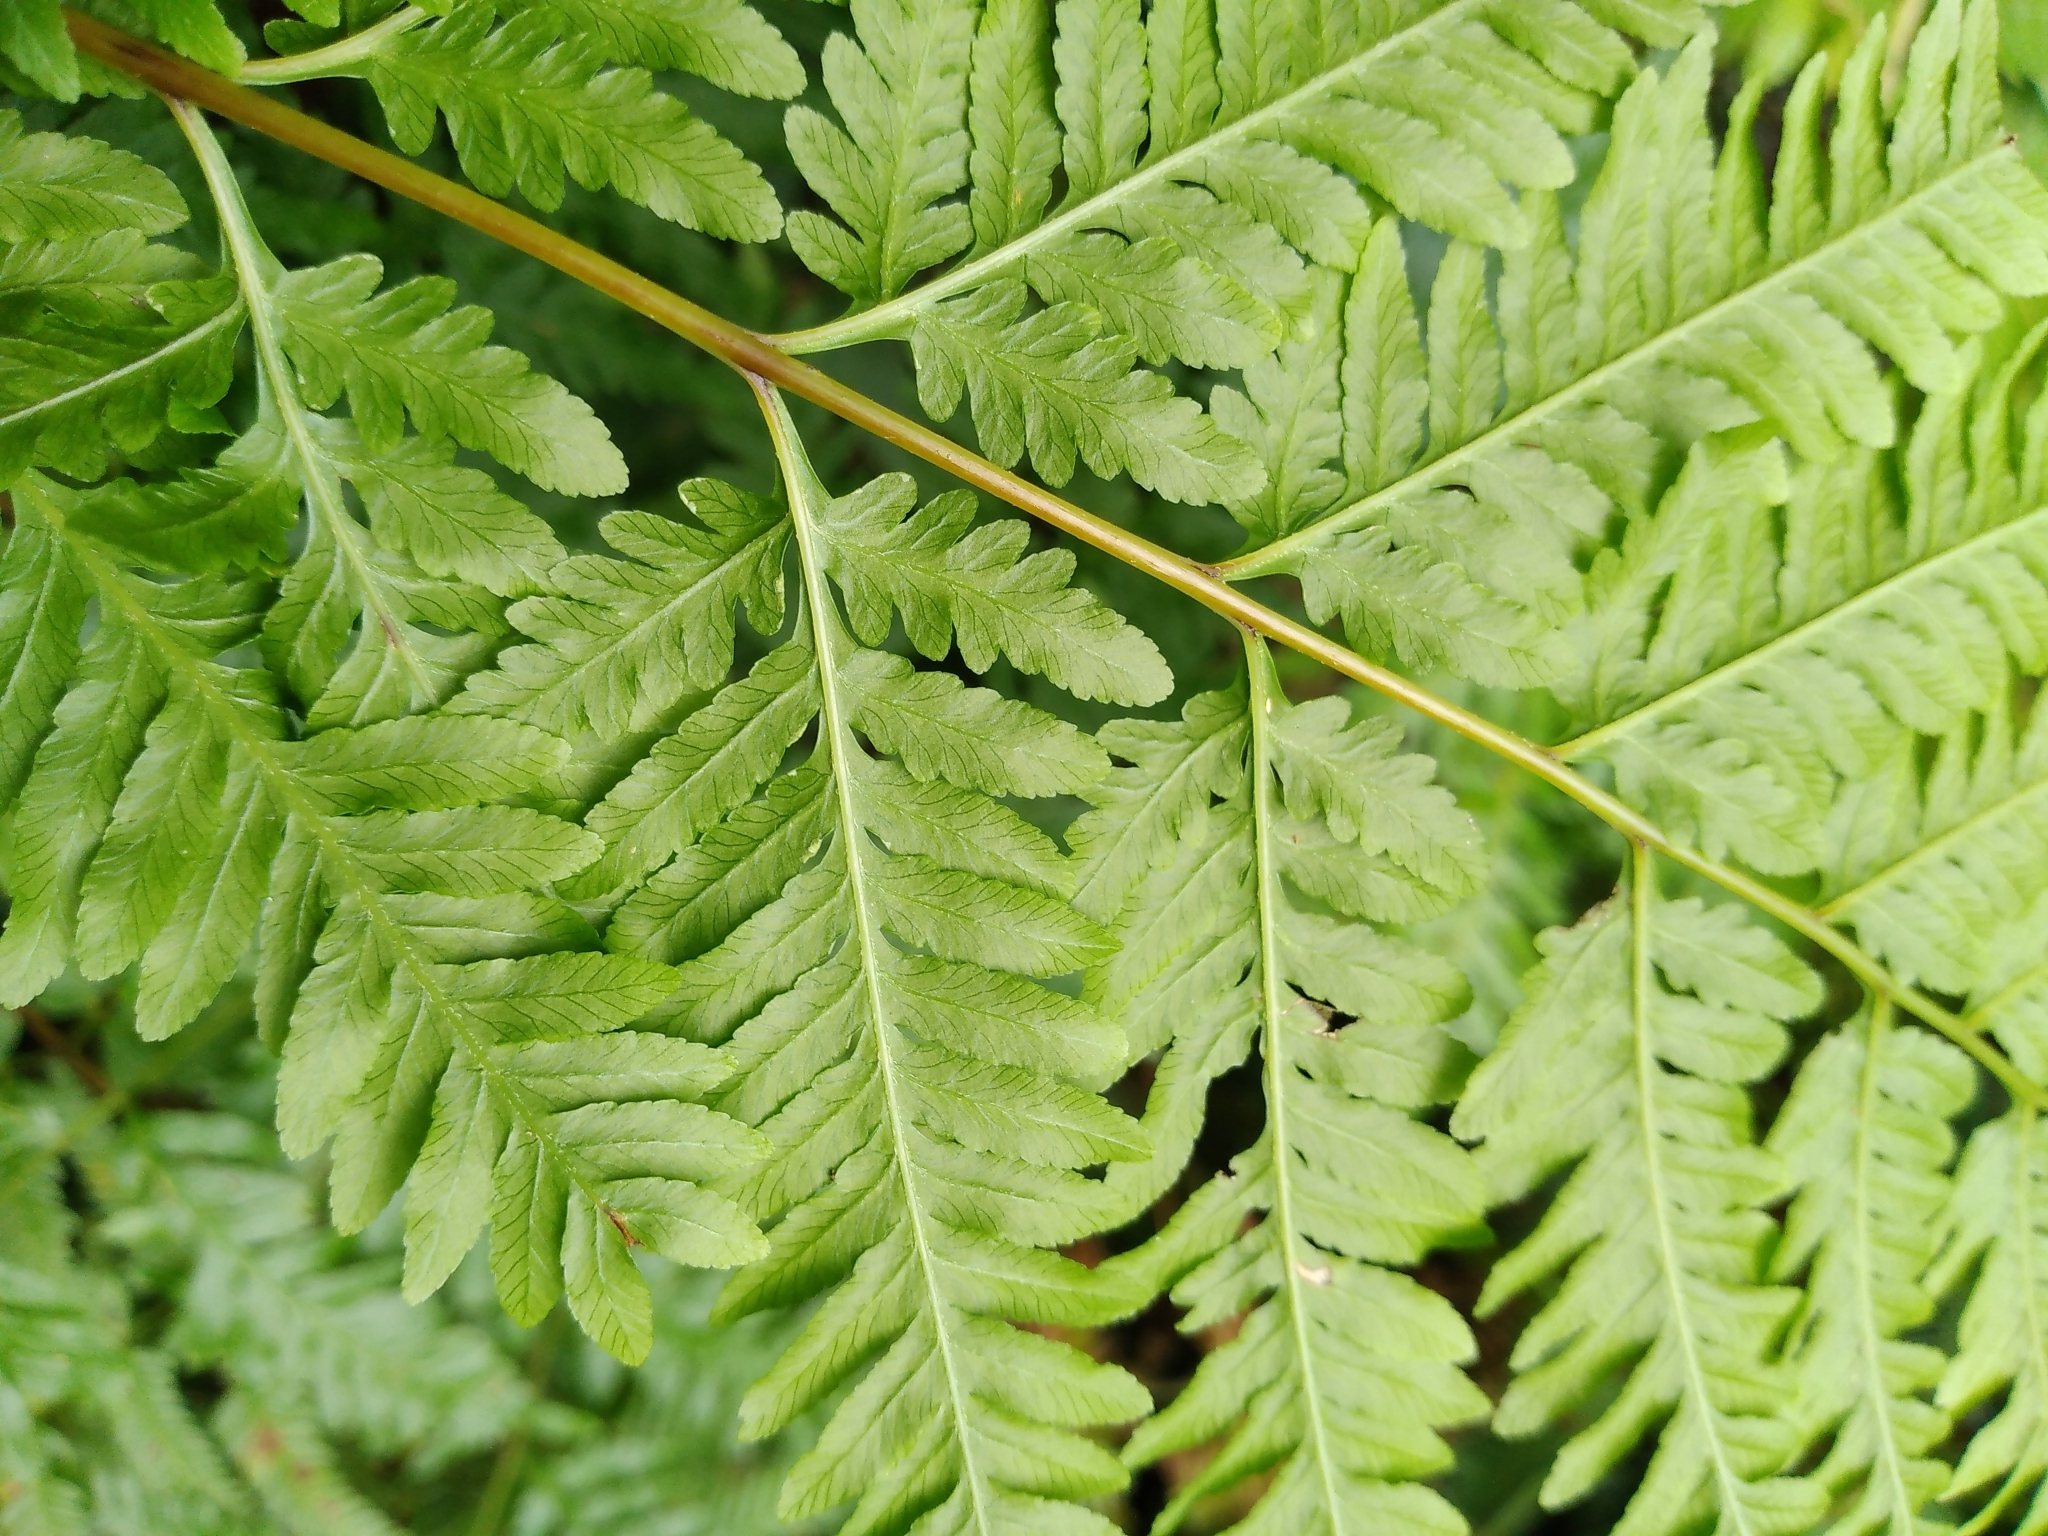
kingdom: Plantae
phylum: Tracheophyta
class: Polypodiopsida
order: Polypodiales
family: Pteridaceae
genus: Pteris
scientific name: Pteris tremula
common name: Australian brake
